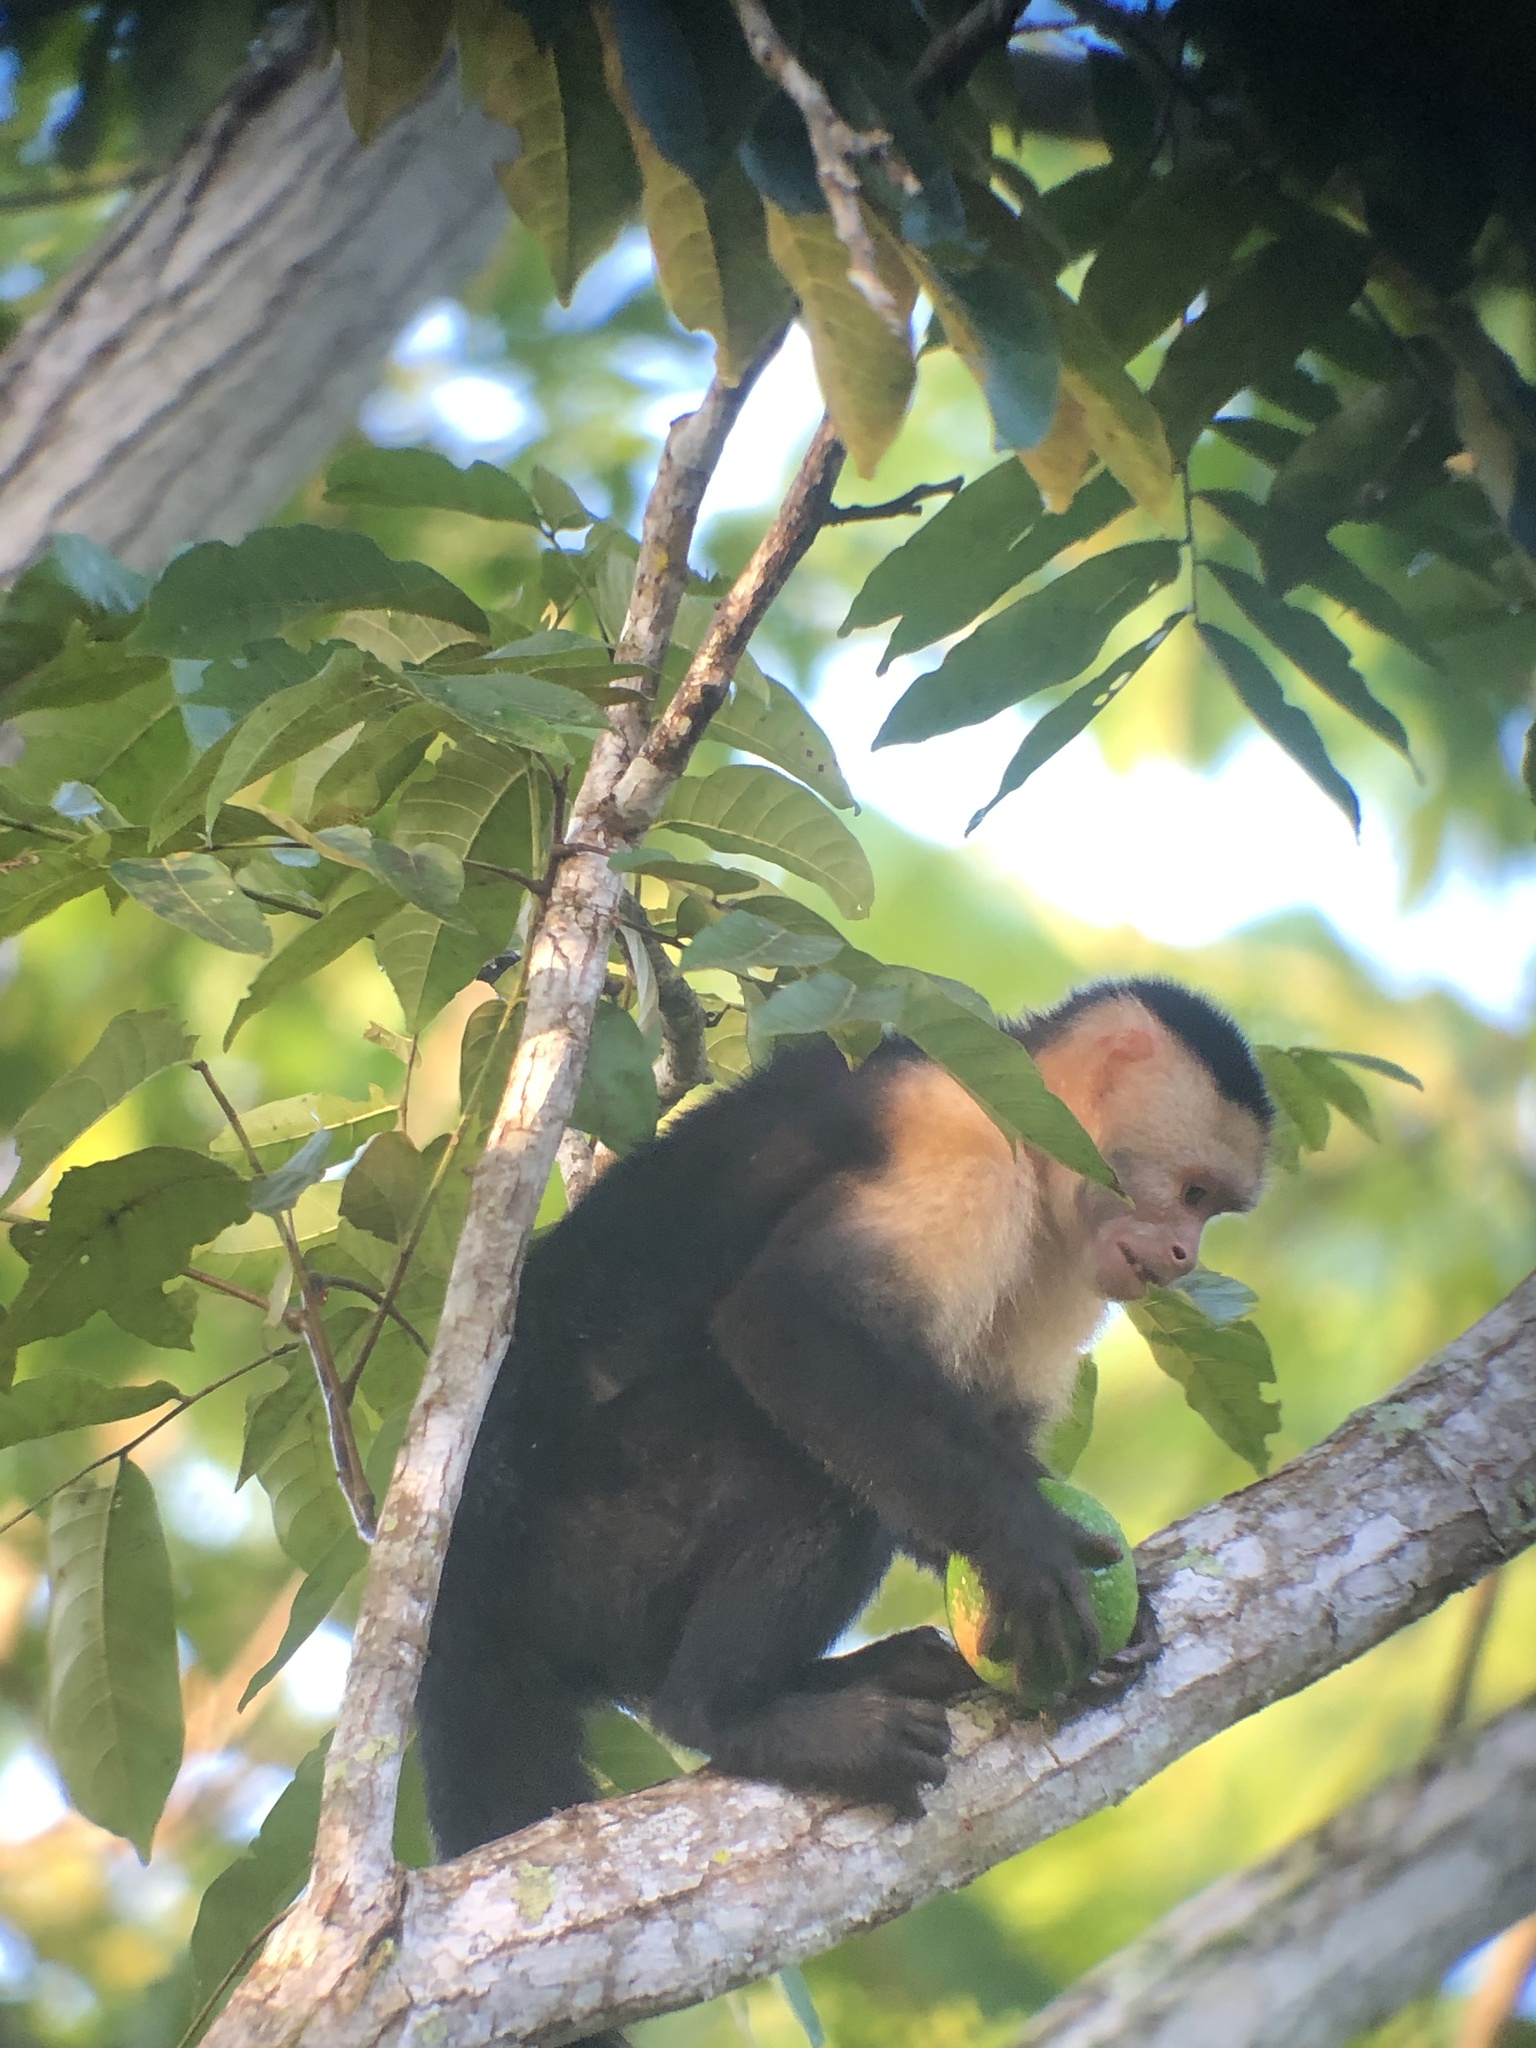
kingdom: Animalia
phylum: Chordata
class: Mammalia
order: Primates
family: Cebidae
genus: Cebus
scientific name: Cebus capucinus
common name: White-headed capuchin
